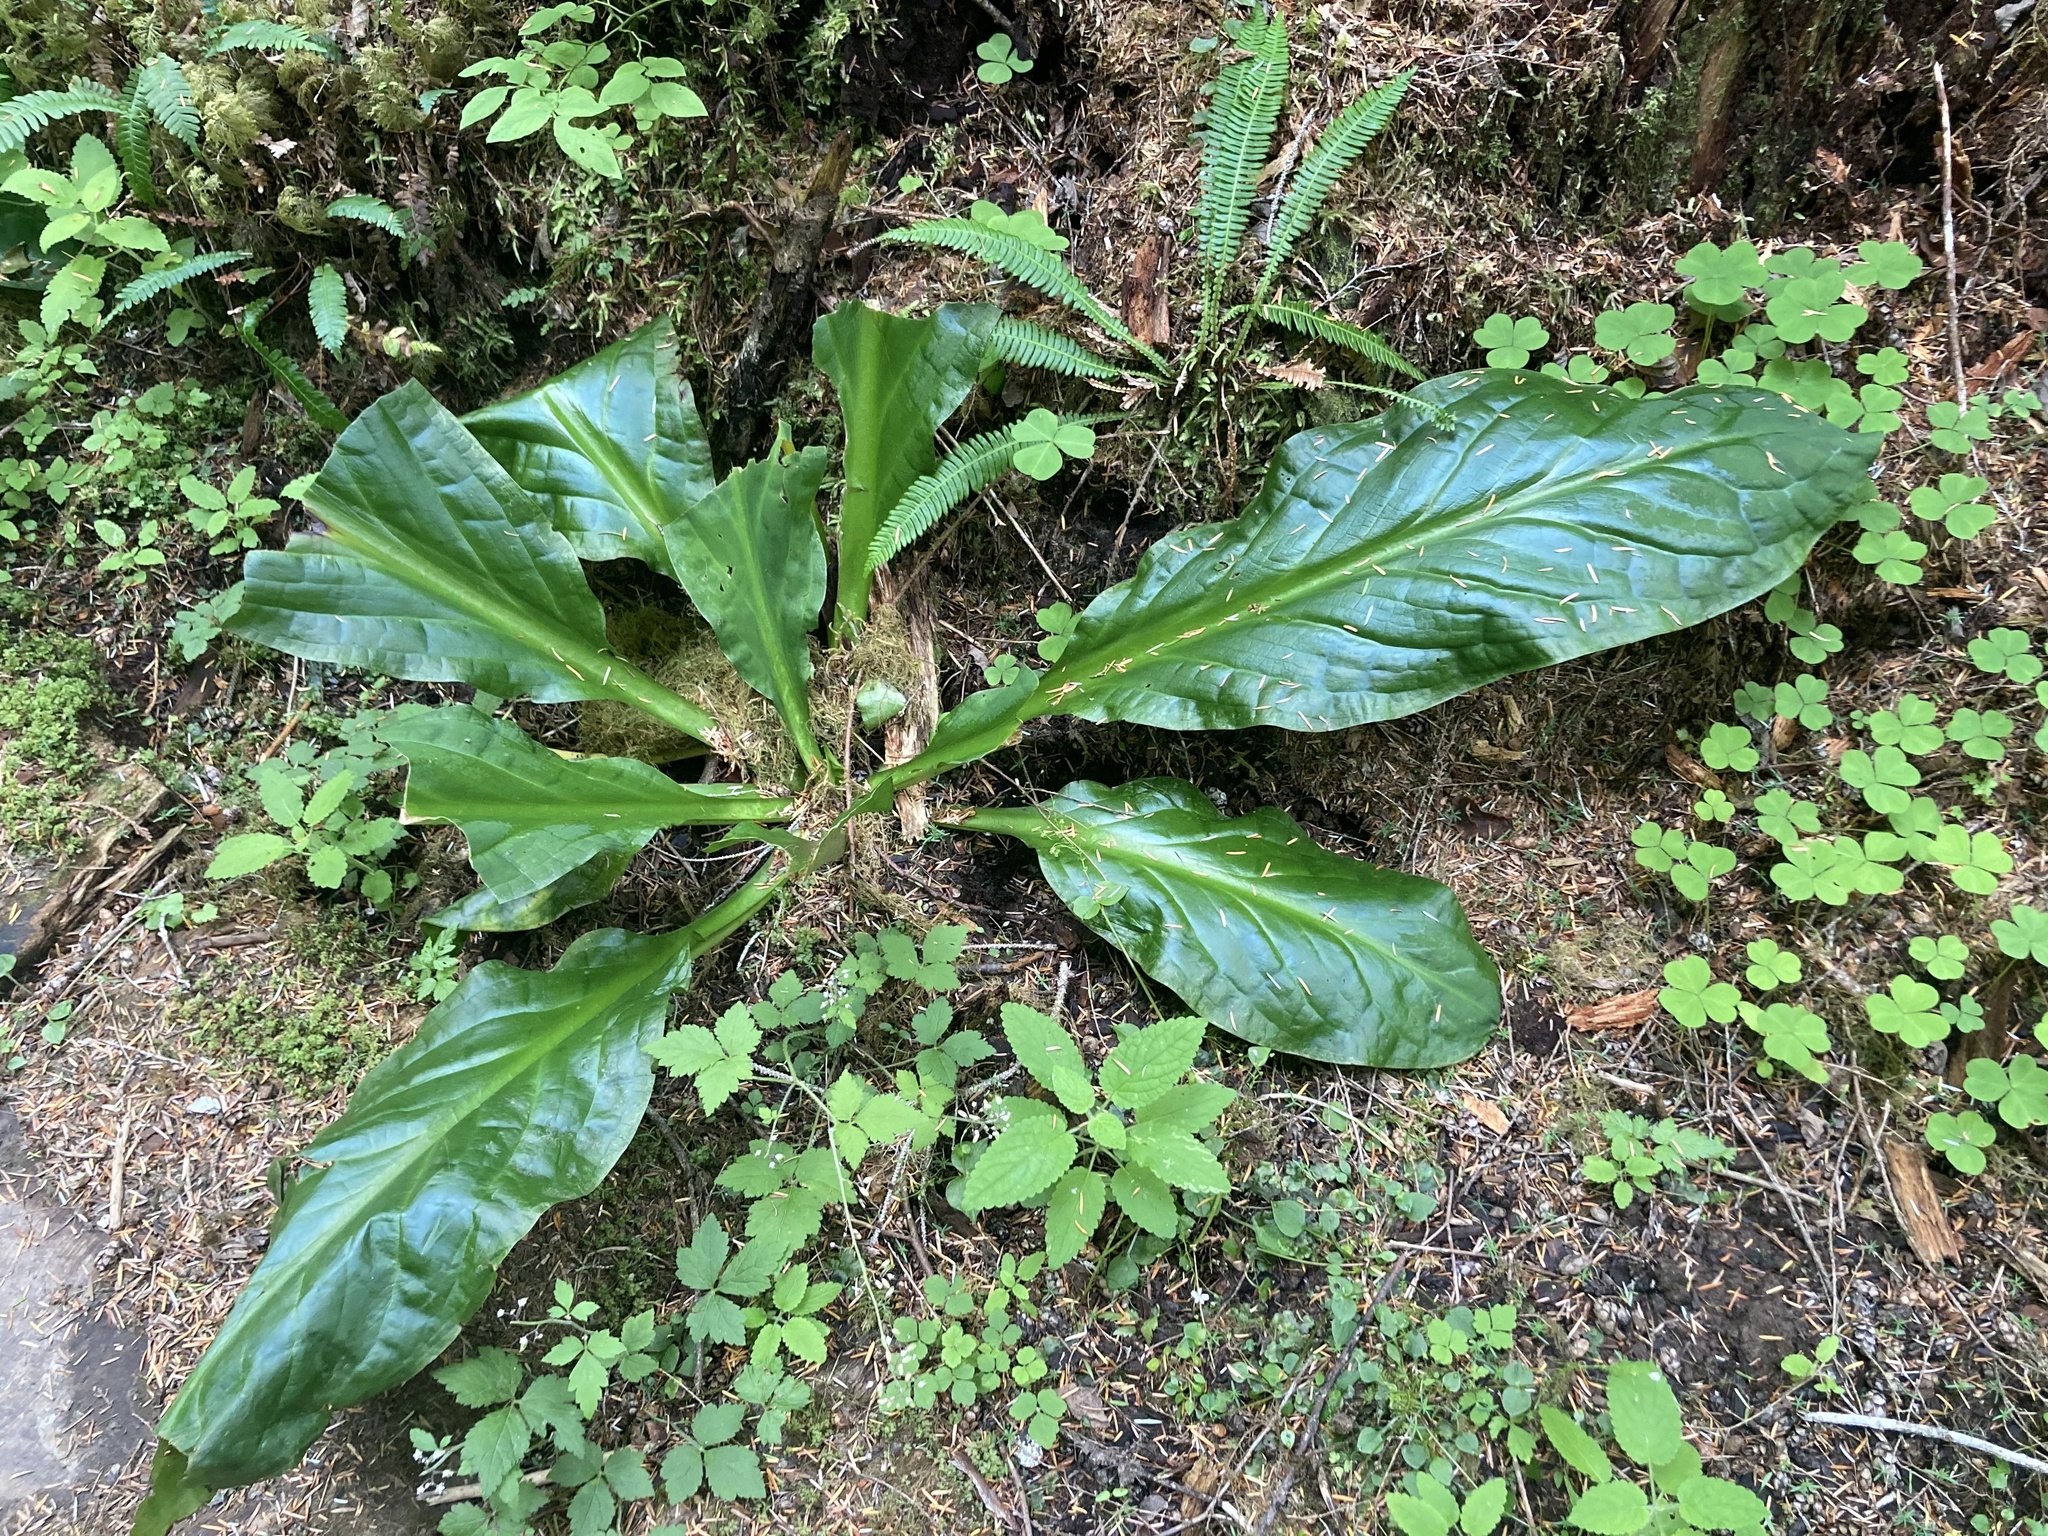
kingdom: Plantae
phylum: Tracheophyta
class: Liliopsida
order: Alismatales
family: Araceae
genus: Lysichiton
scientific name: Lysichiton americanus
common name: American skunk cabbage
